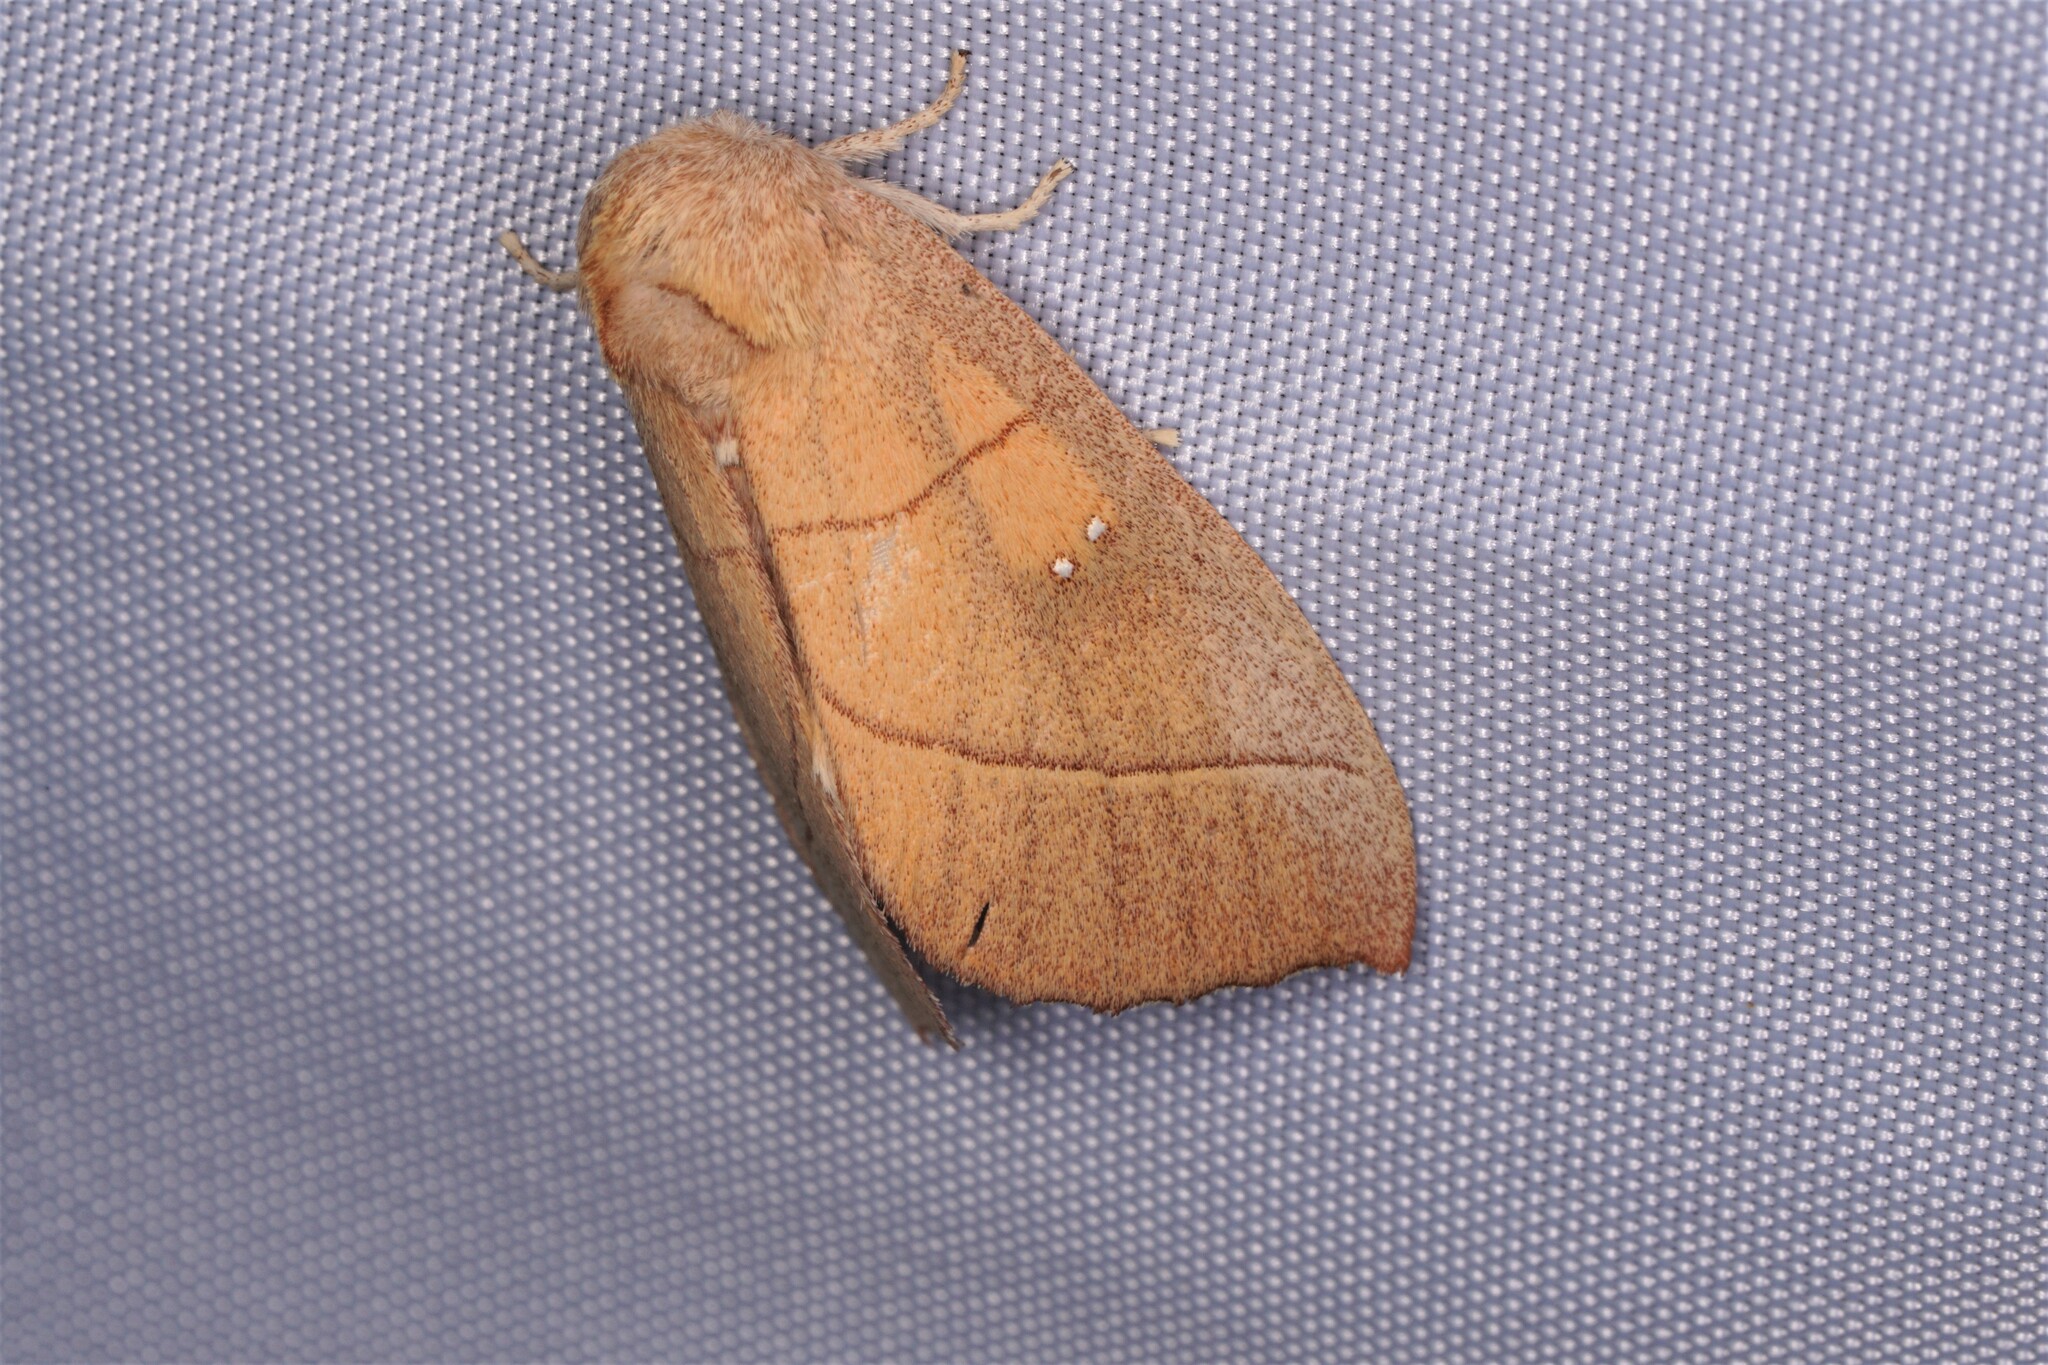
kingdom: Animalia
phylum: Arthropoda
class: Insecta
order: Lepidoptera
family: Notodontidae
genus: Nadata
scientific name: Nadata gibbosa
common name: White-dotted prominent
